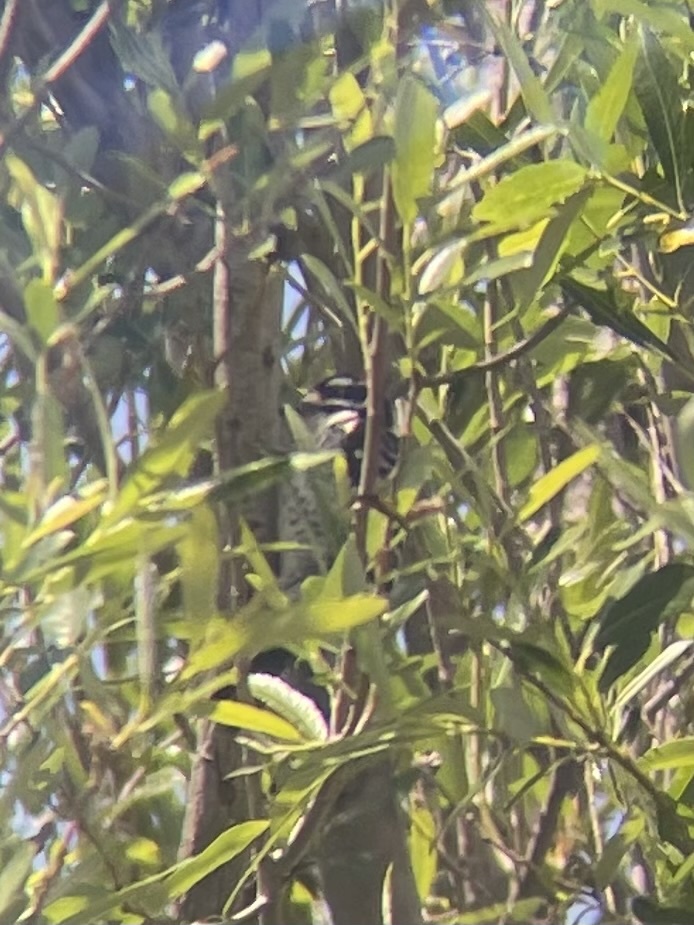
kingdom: Animalia
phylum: Chordata
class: Aves
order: Piciformes
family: Picidae
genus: Dryobates
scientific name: Dryobates nuttallii
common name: Nuttall's woodpecker
